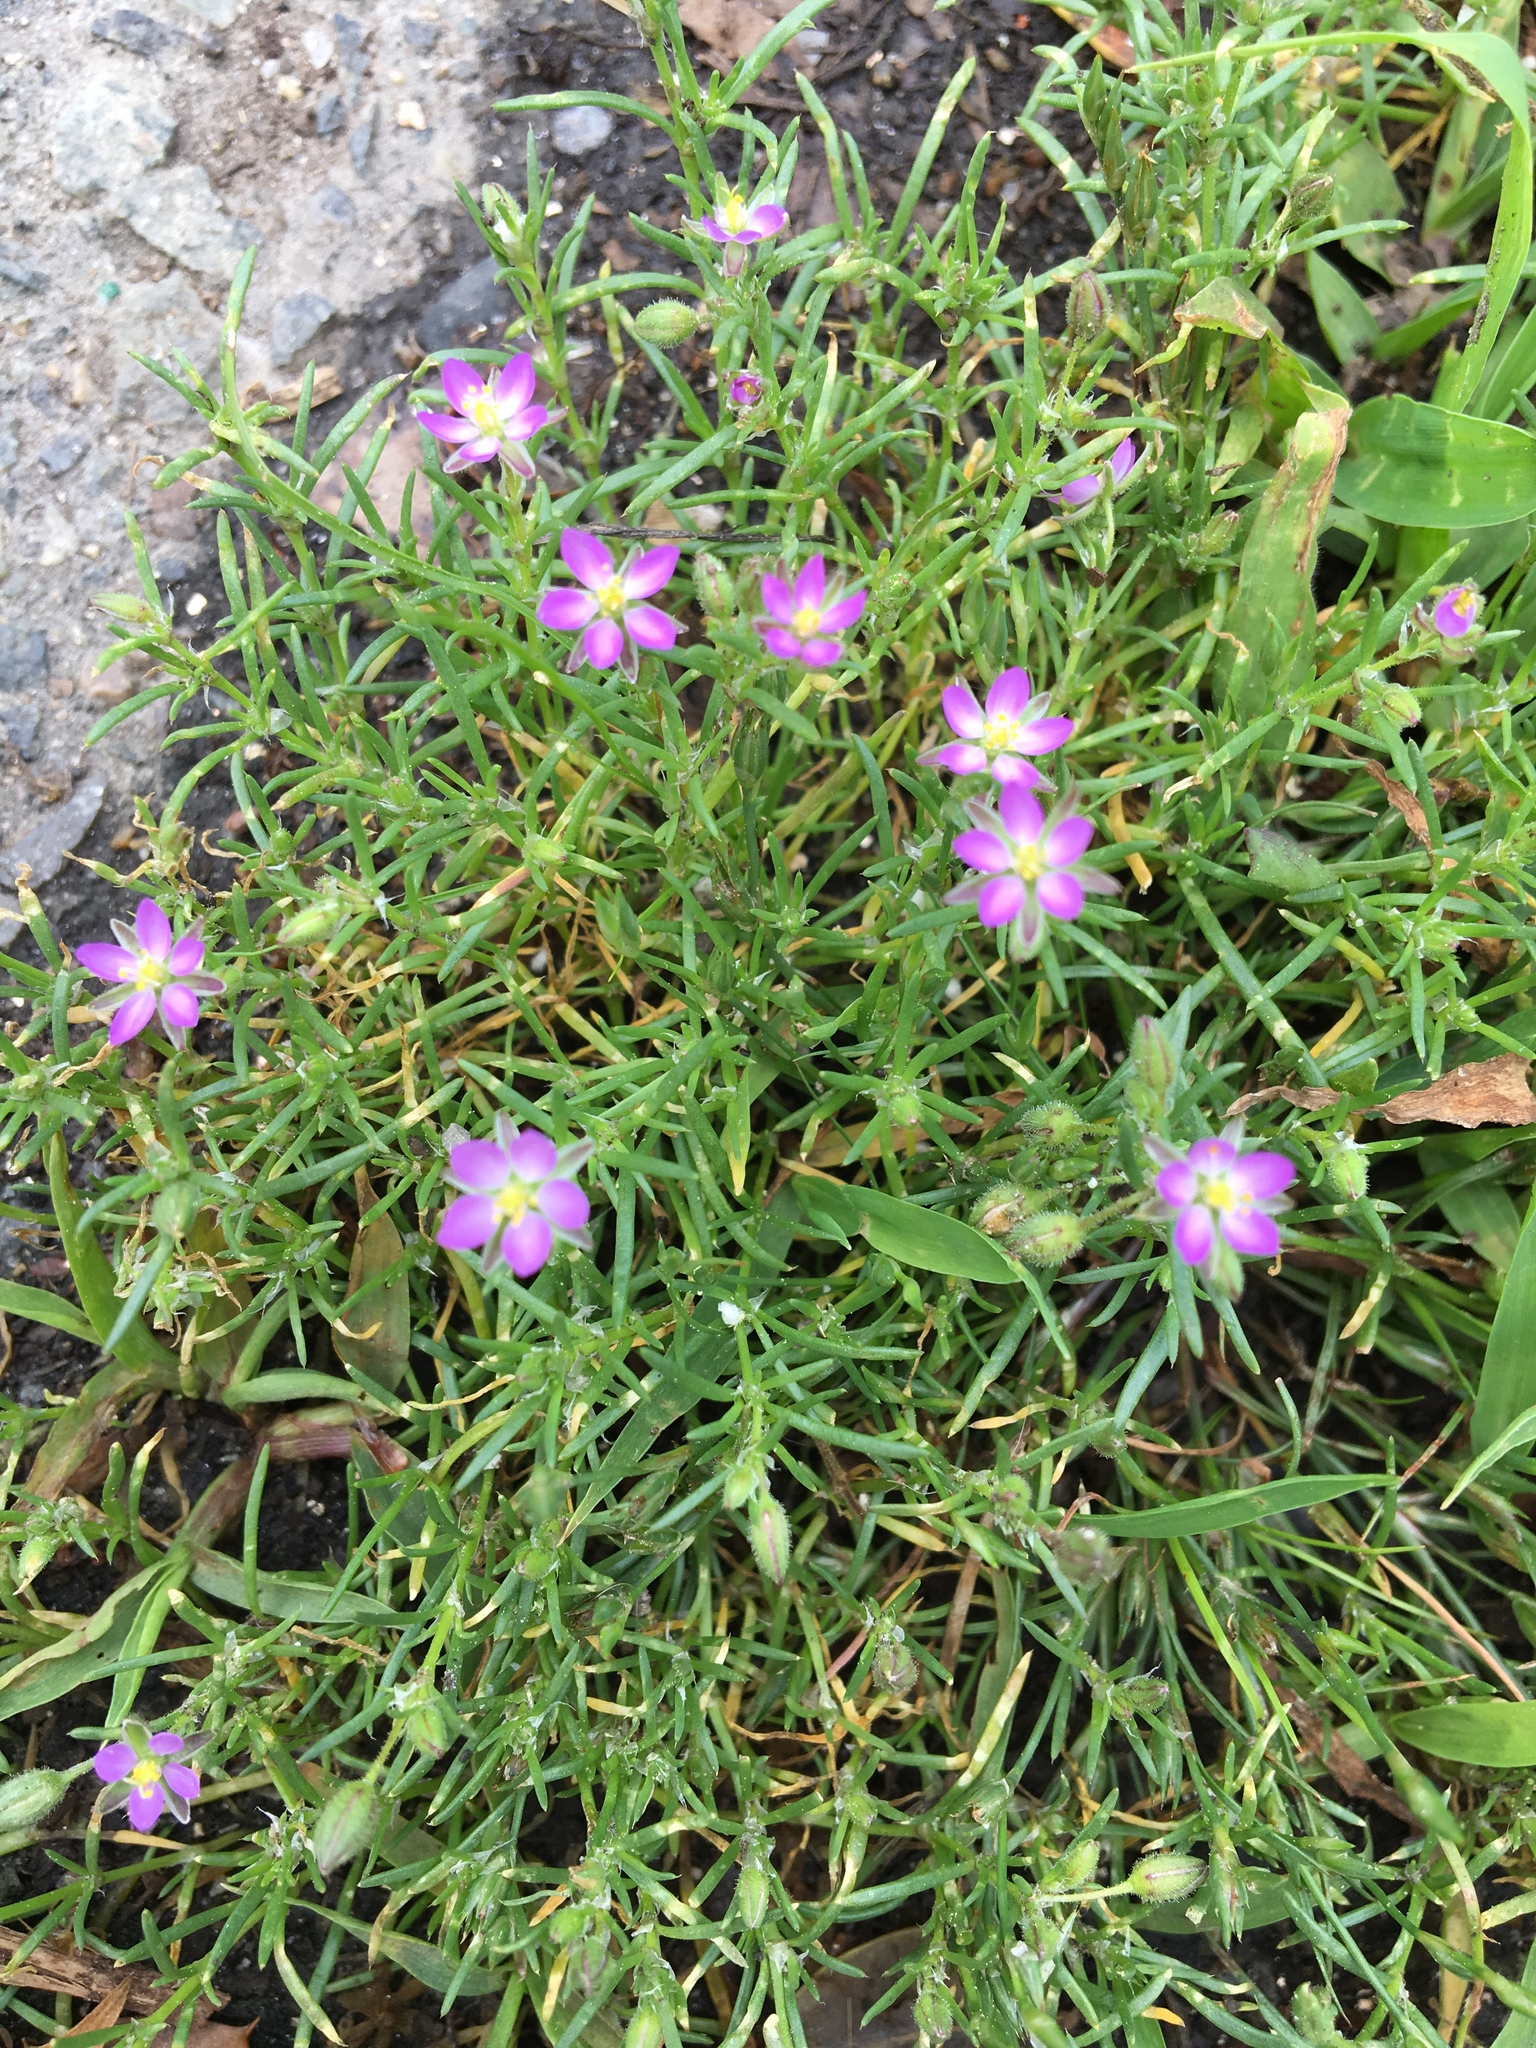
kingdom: Plantae
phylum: Tracheophyta
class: Magnoliopsida
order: Caryophyllales
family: Caryophyllaceae
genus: Spergularia
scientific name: Spergularia rubra
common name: Red sand-spurrey
